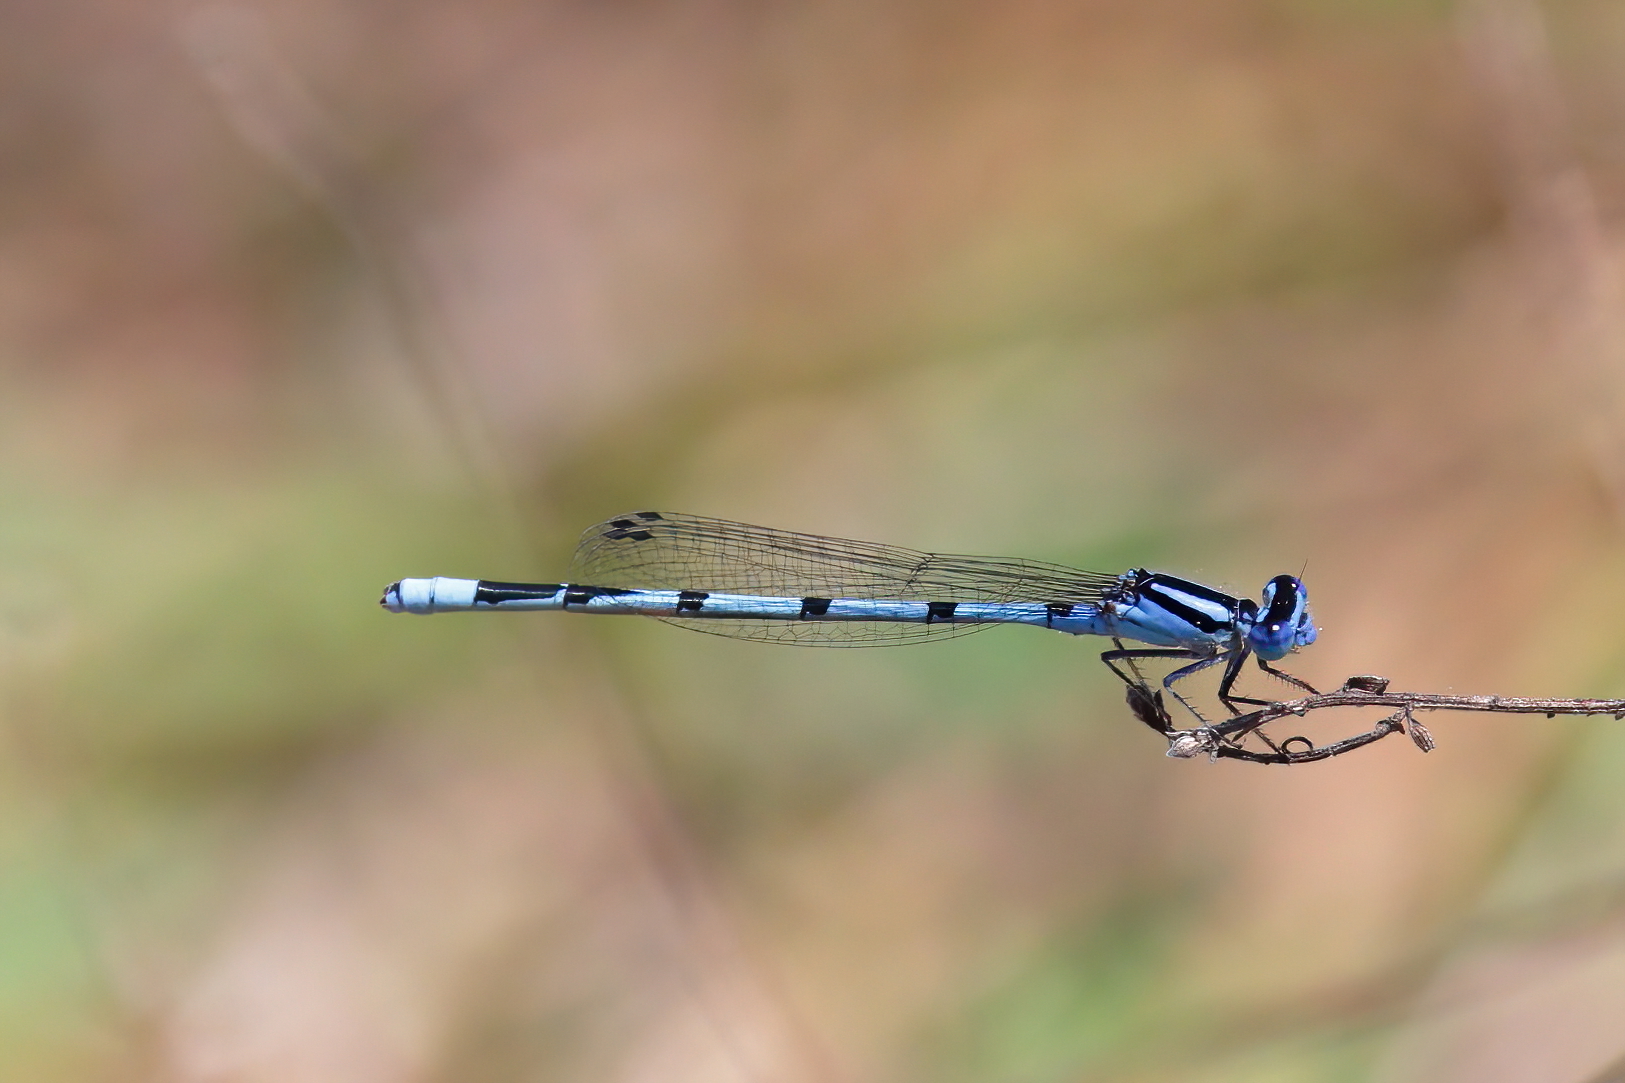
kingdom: Animalia
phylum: Arthropoda
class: Insecta
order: Odonata
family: Coenagrionidae
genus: Enallagma
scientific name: Enallagma doubledayi
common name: Atlantic bluet
